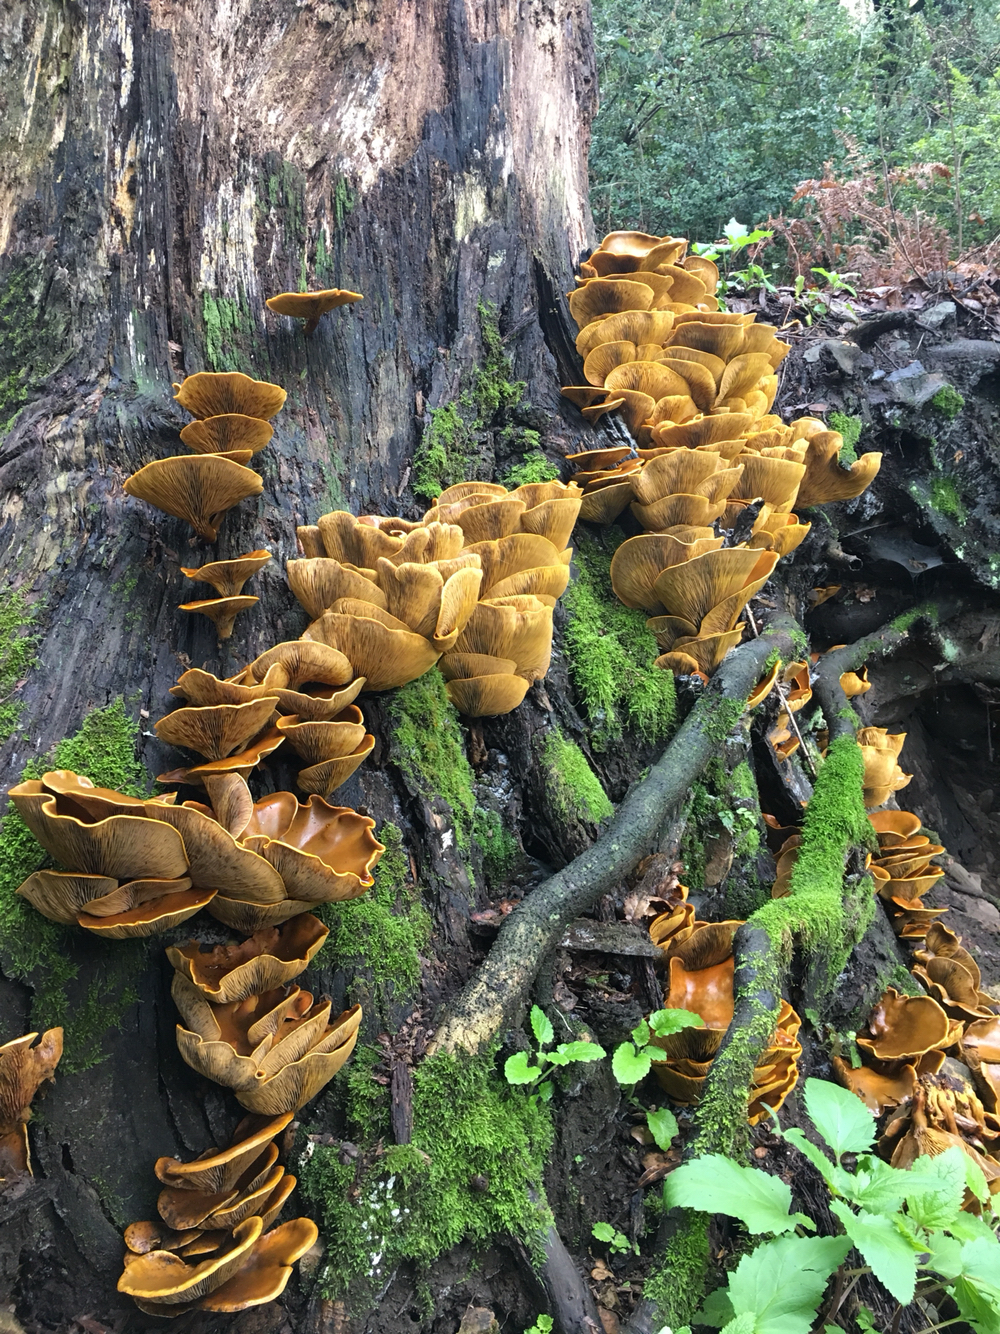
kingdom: Fungi
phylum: Basidiomycota
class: Agaricomycetes
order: Agaricales
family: Omphalotaceae
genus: Omphalotus
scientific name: Omphalotus olivascens
